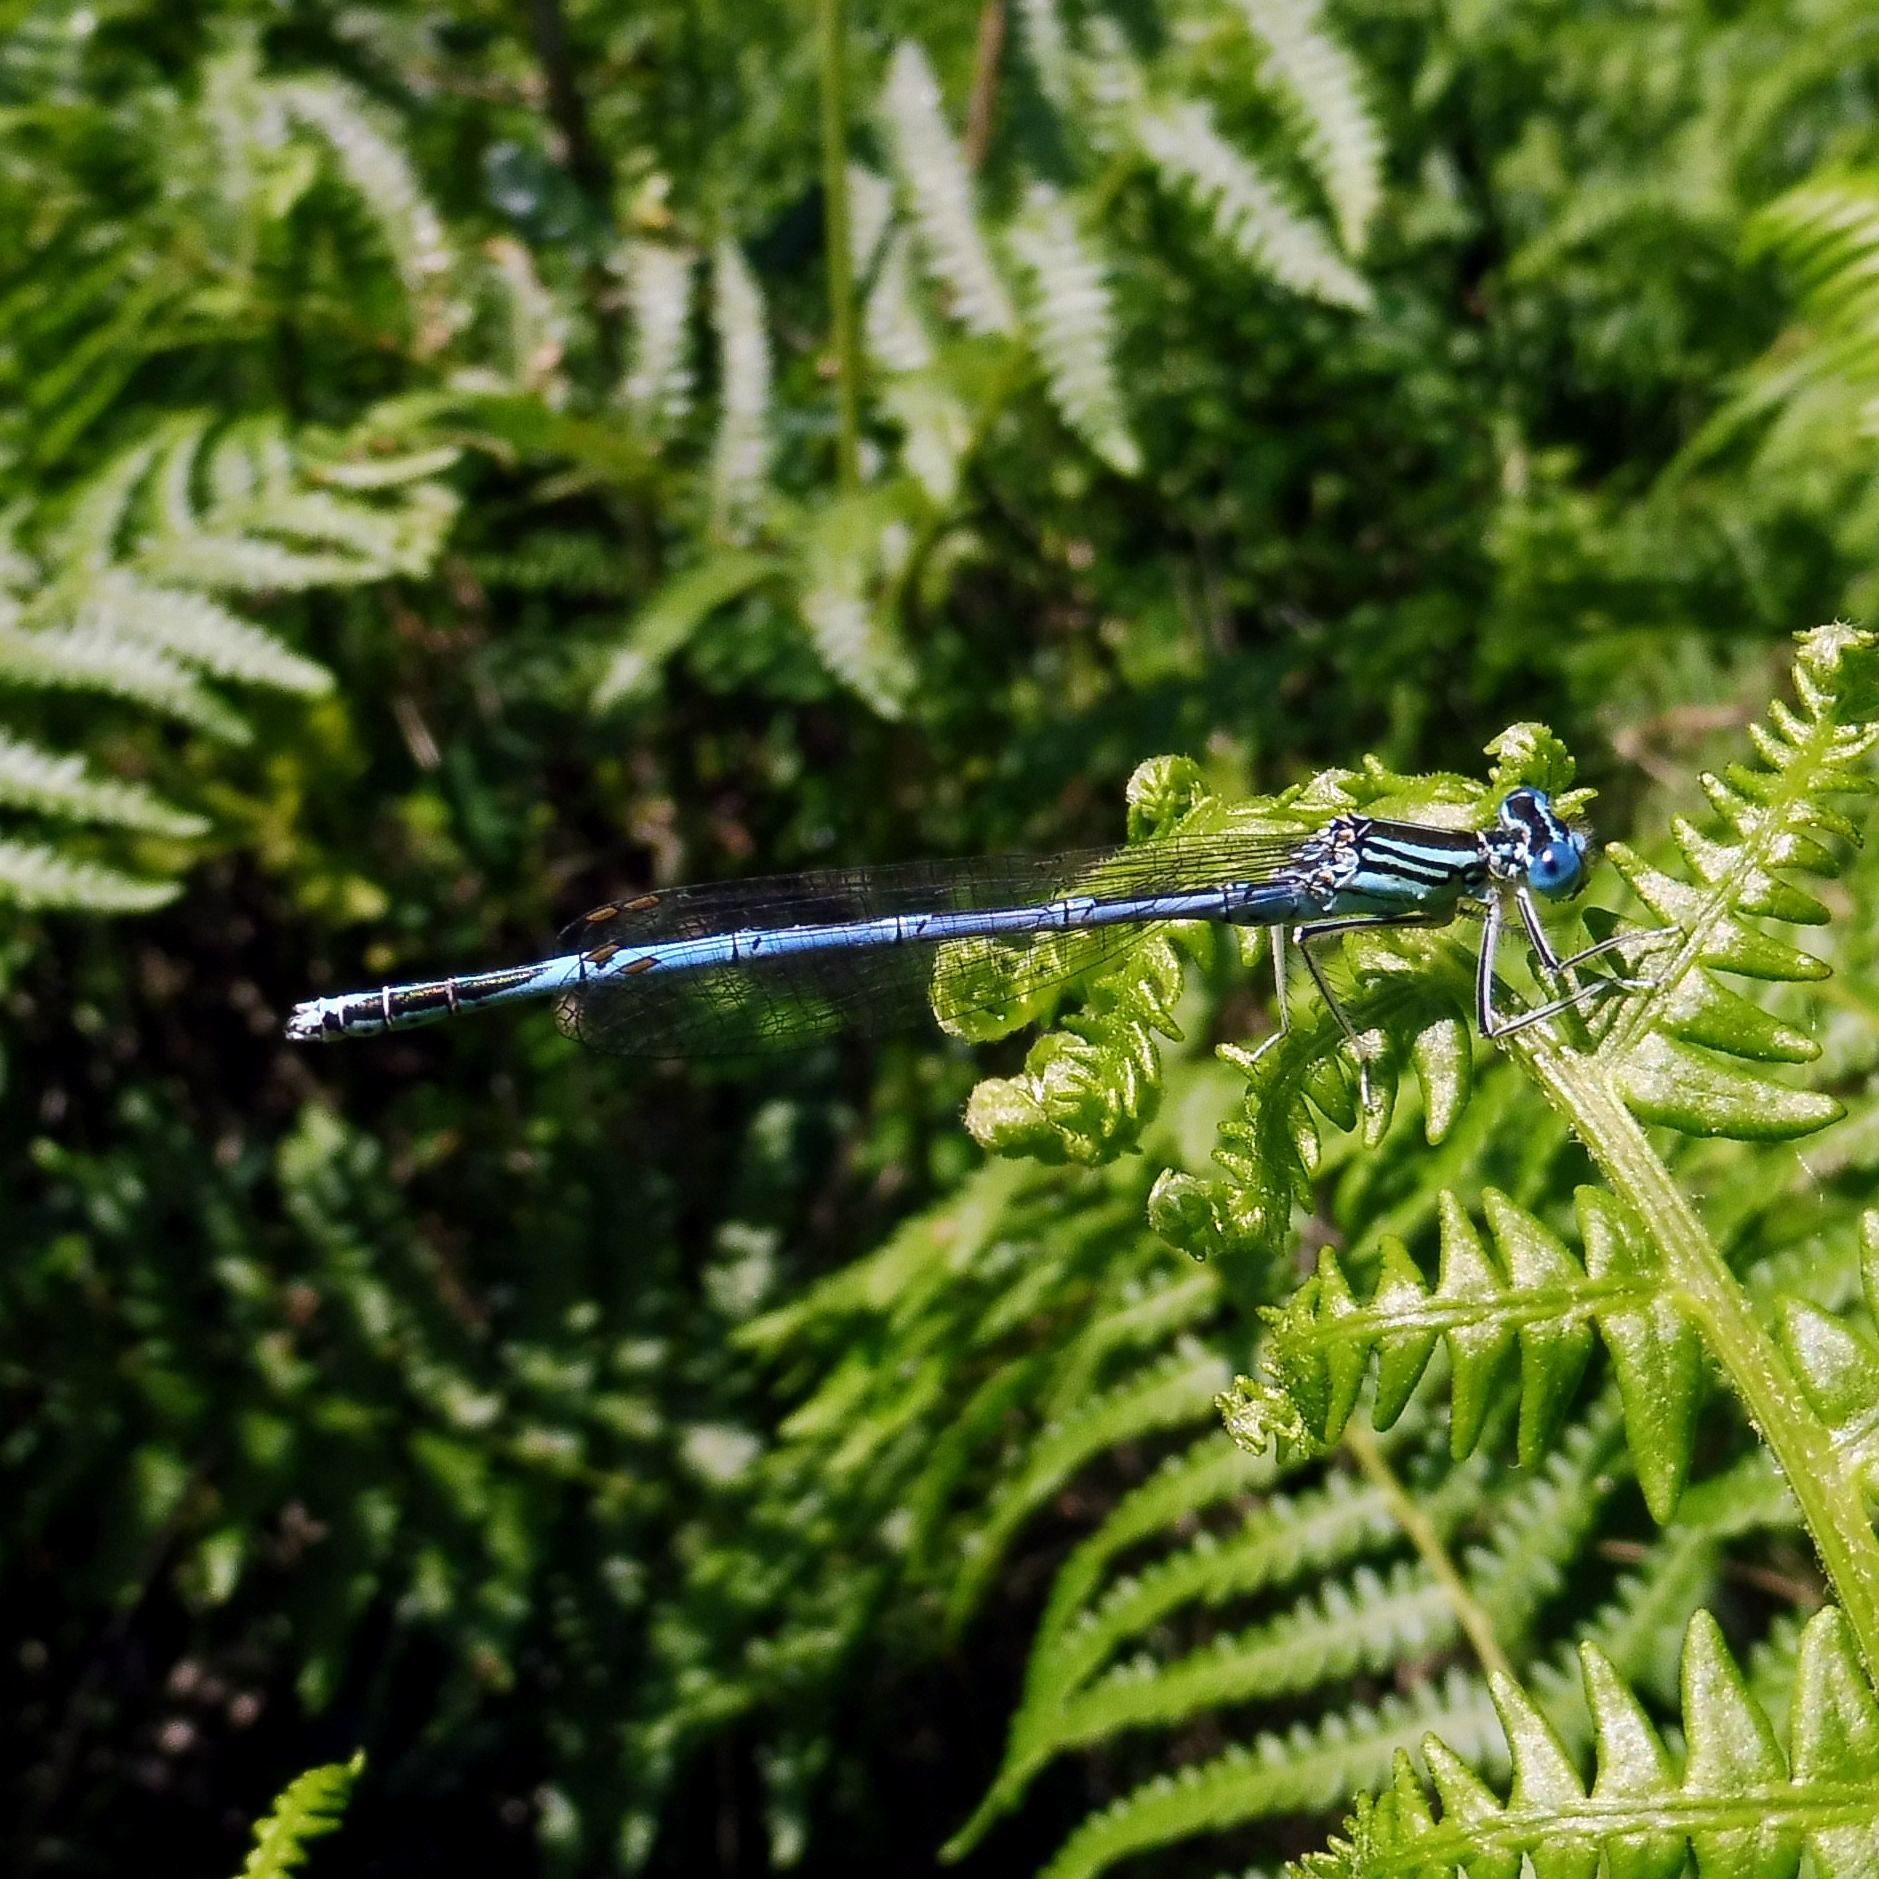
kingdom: Animalia
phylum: Arthropoda
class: Insecta
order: Odonata
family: Platycnemididae
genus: Platycnemis
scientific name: Platycnemis pennipes
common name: White-legged damselfly
